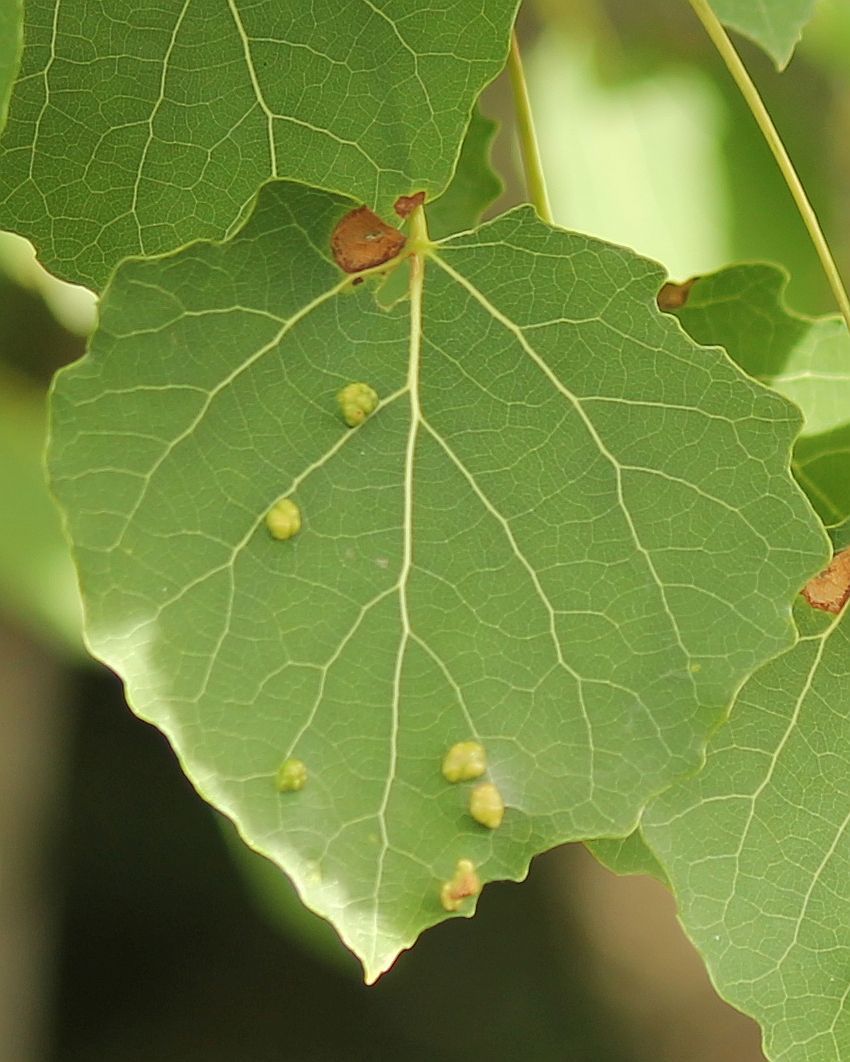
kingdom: Plantae
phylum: Tracheophyta
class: Magnoliopsida
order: Malpighiales
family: Salicaceae
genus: Populus
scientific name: Populus tremula
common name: European aspen
